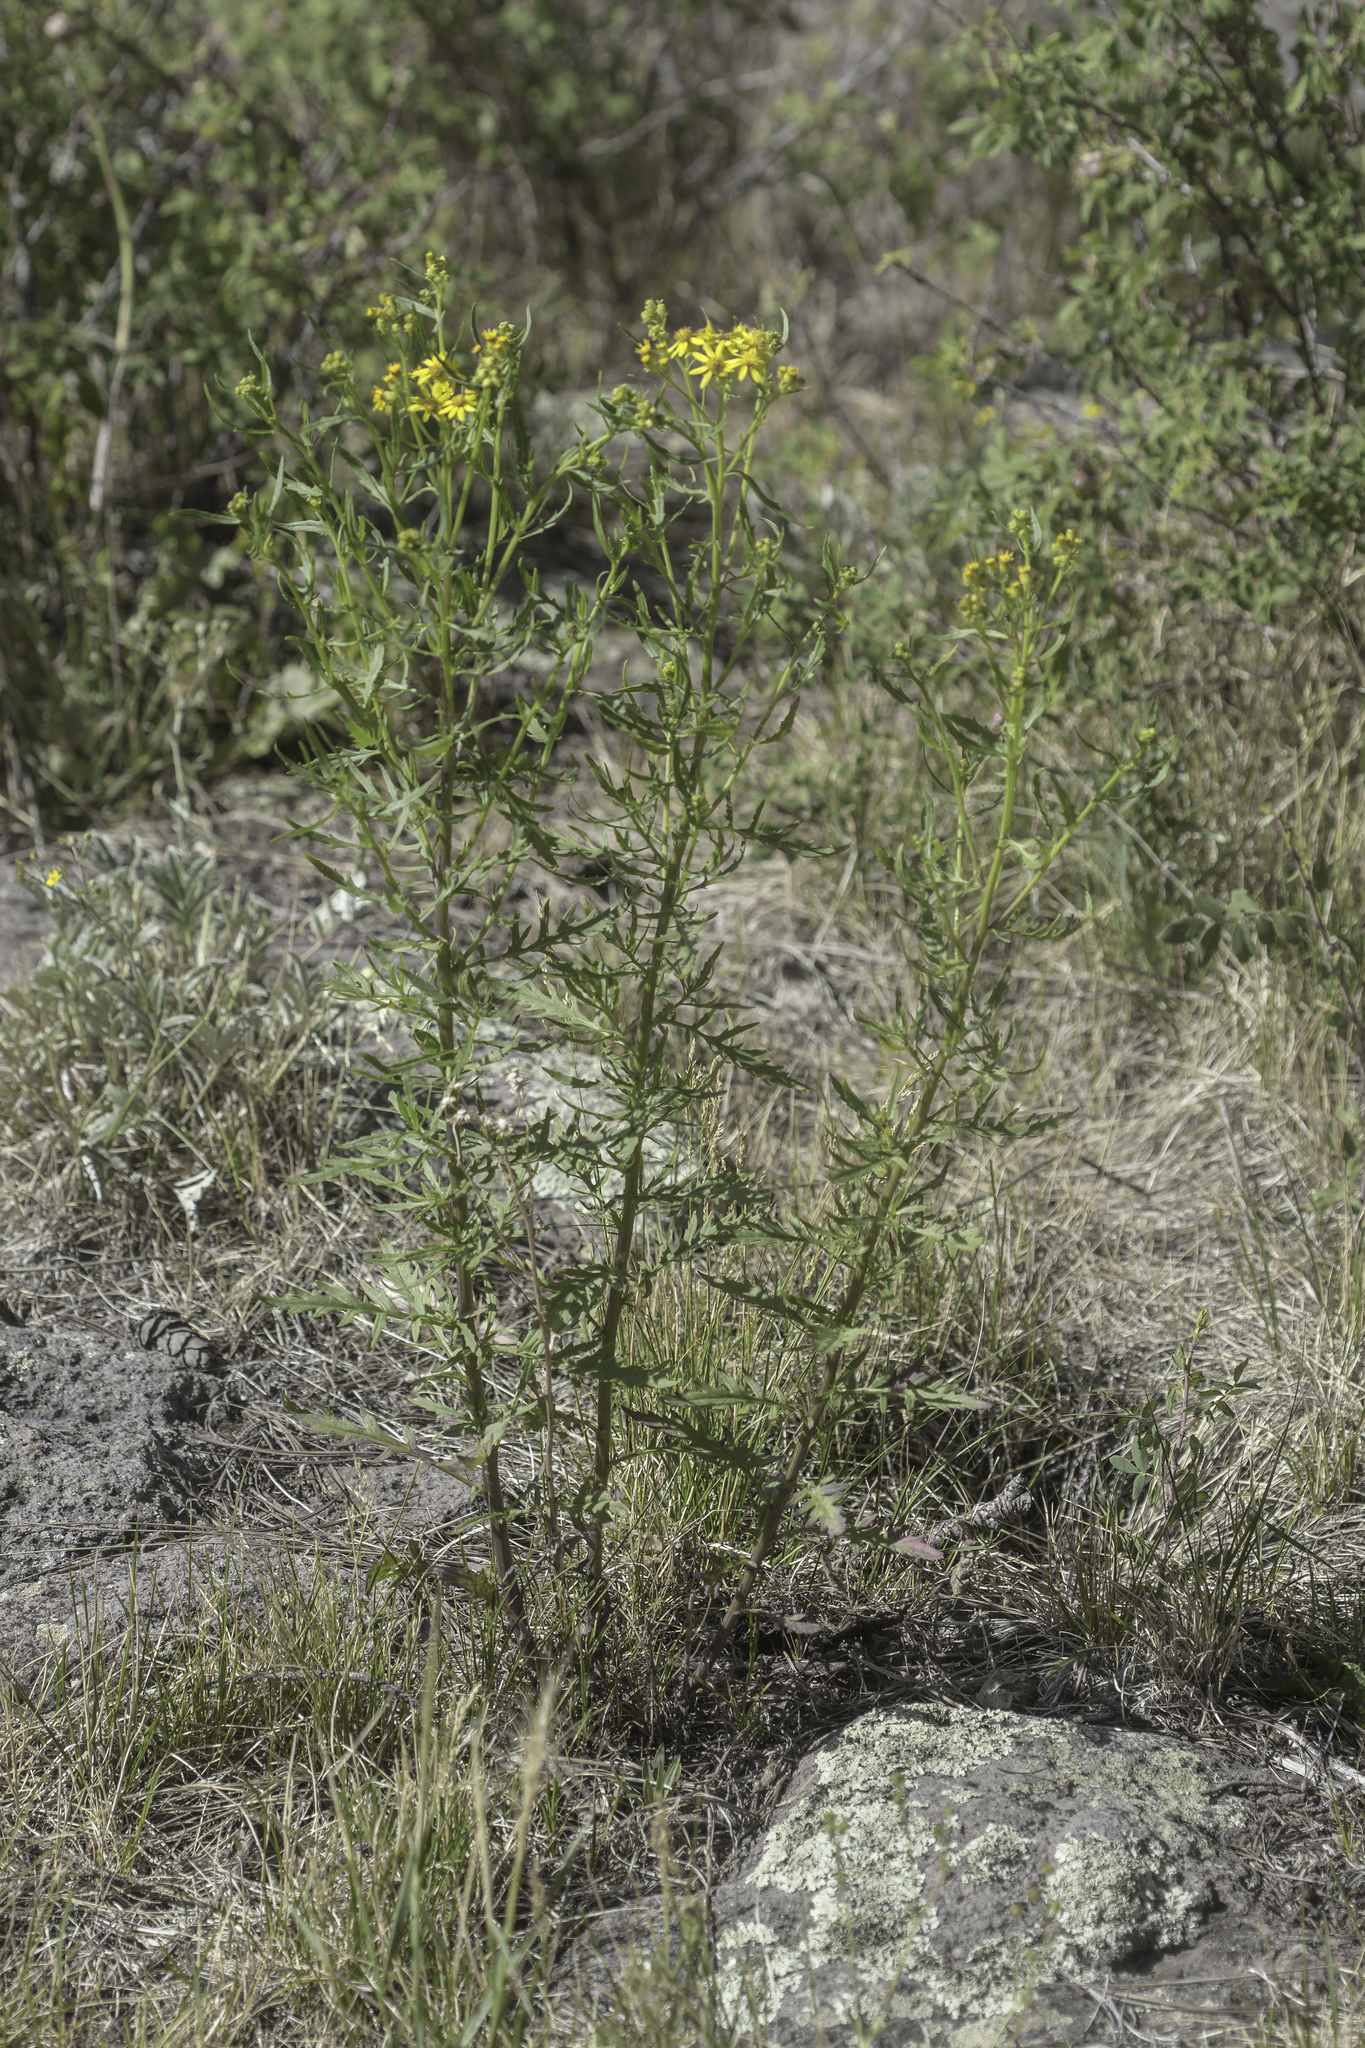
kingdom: Plantae
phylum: Tracheophyta
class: Magnoliopsida
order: Asterales
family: Asteraceae
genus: Senecio
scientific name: Senecio eremophilus
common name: Desert ragwort
